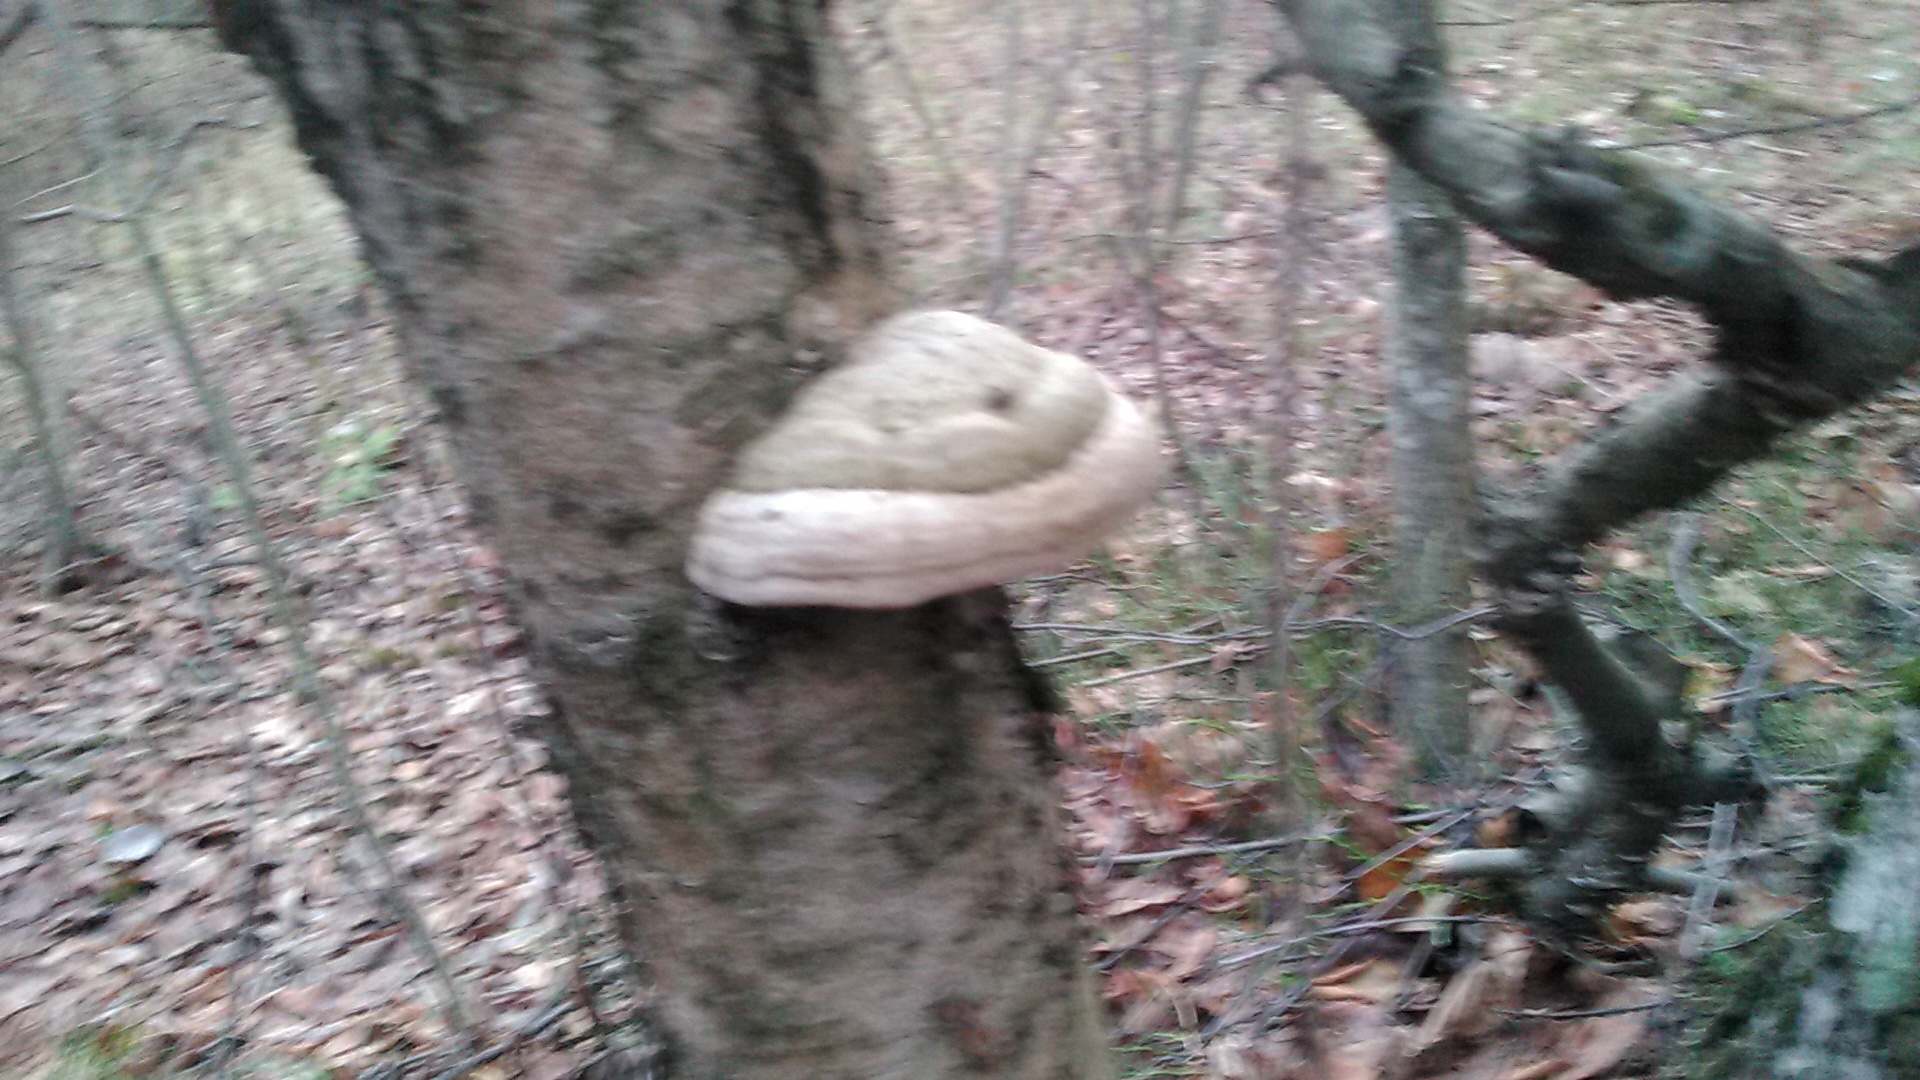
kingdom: Fungi
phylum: Basidiomycota
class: Agaricomycetes
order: Polyporales
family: Polyporaceae
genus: Fomes
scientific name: Fomes fomentarius
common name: Hoof fungus
